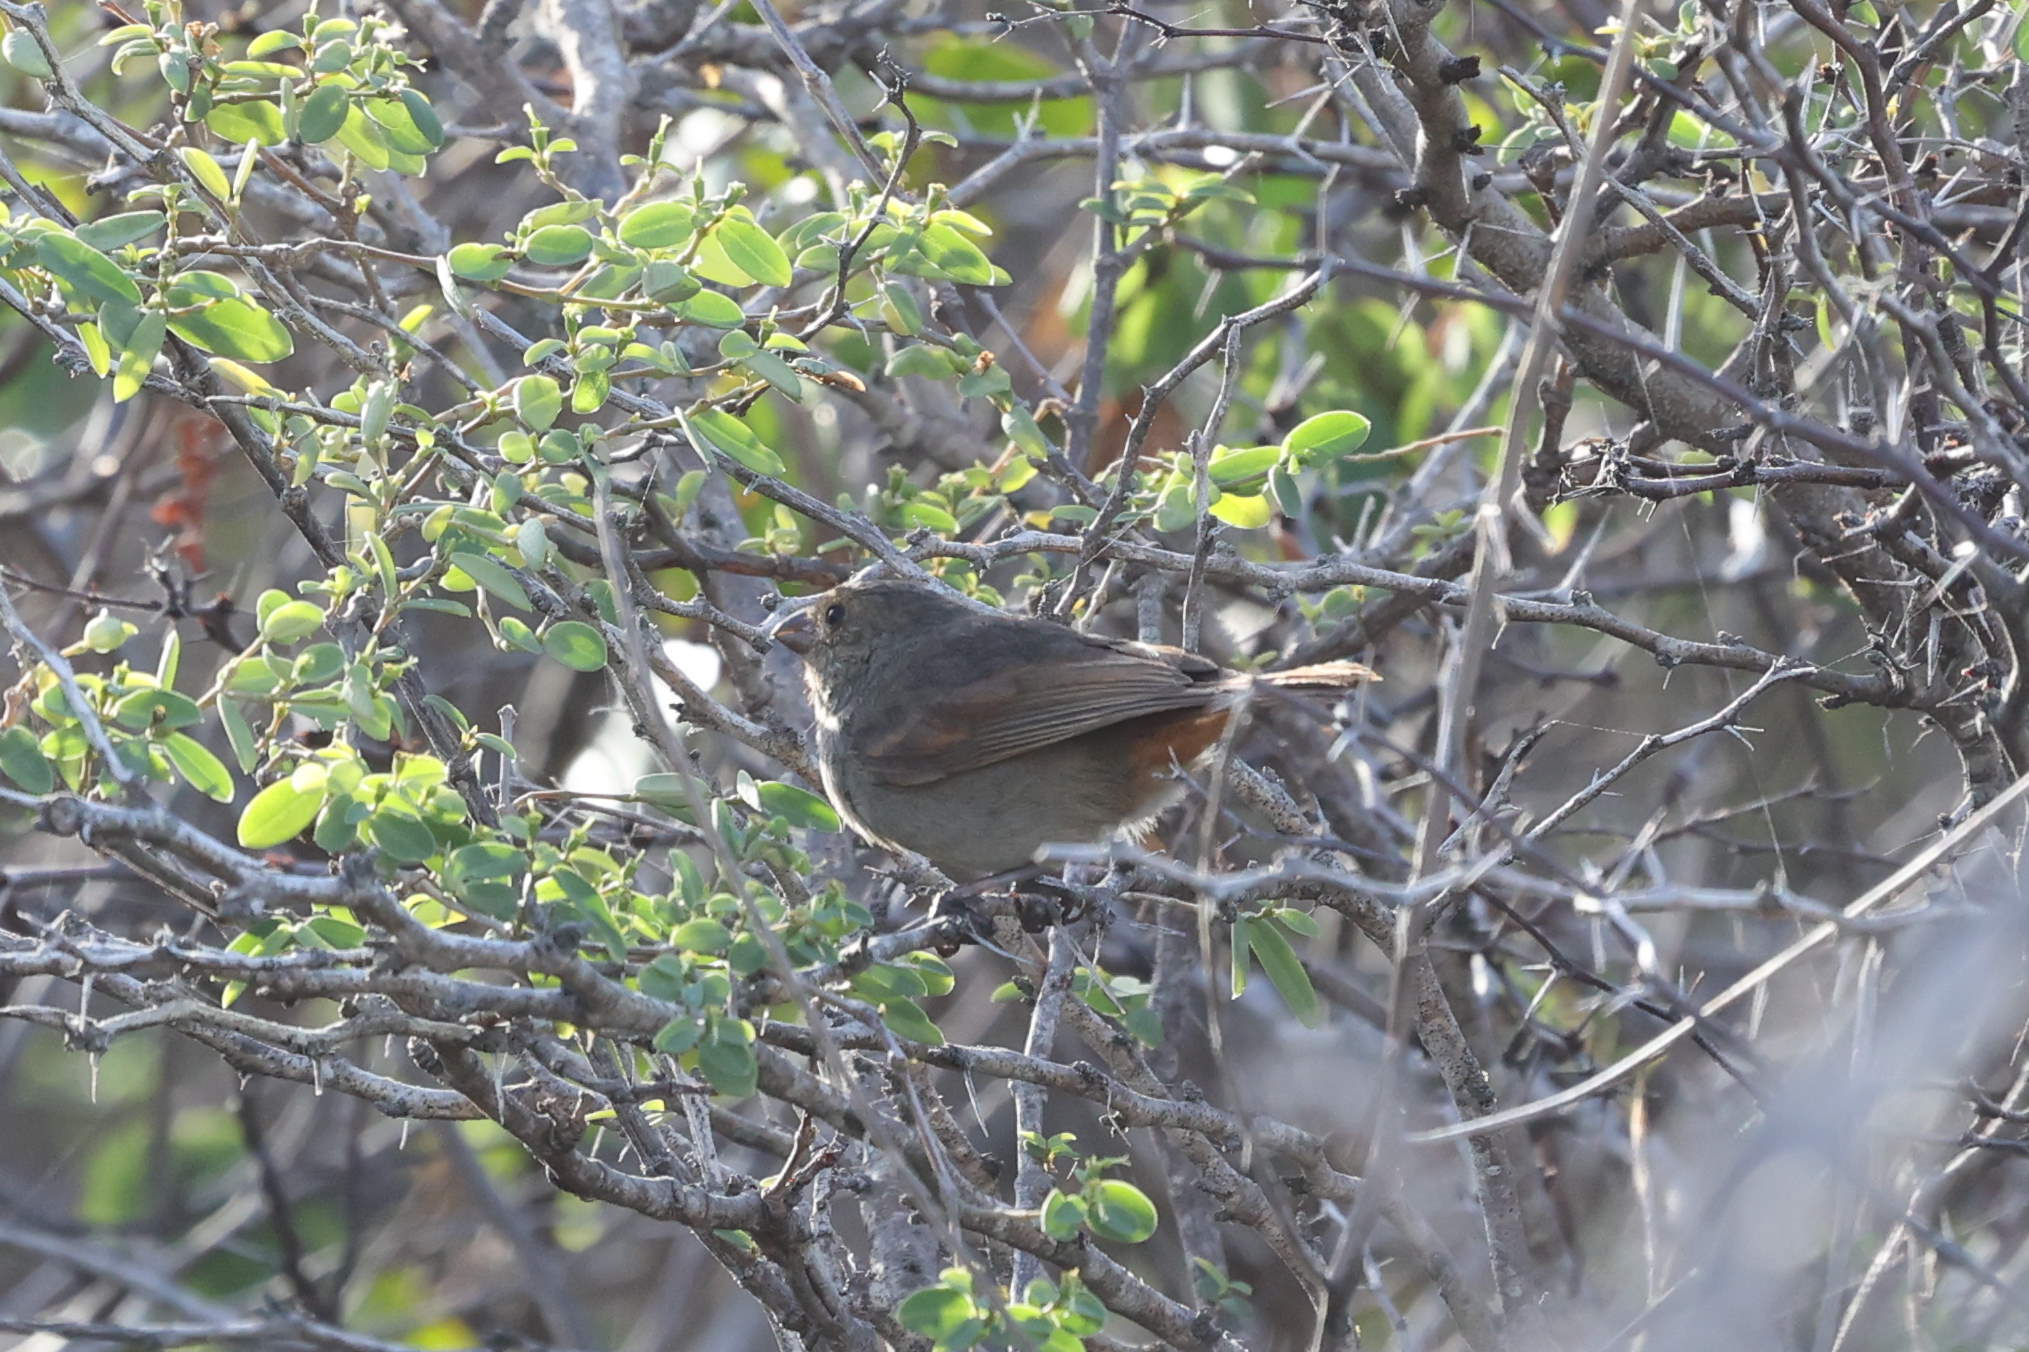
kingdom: Animalia
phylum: Chordata
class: Aves
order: Passeriformes
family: Thraupidae
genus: Loxigilla
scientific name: Loxigilla noctis
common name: Lesser antillean bullfinch
